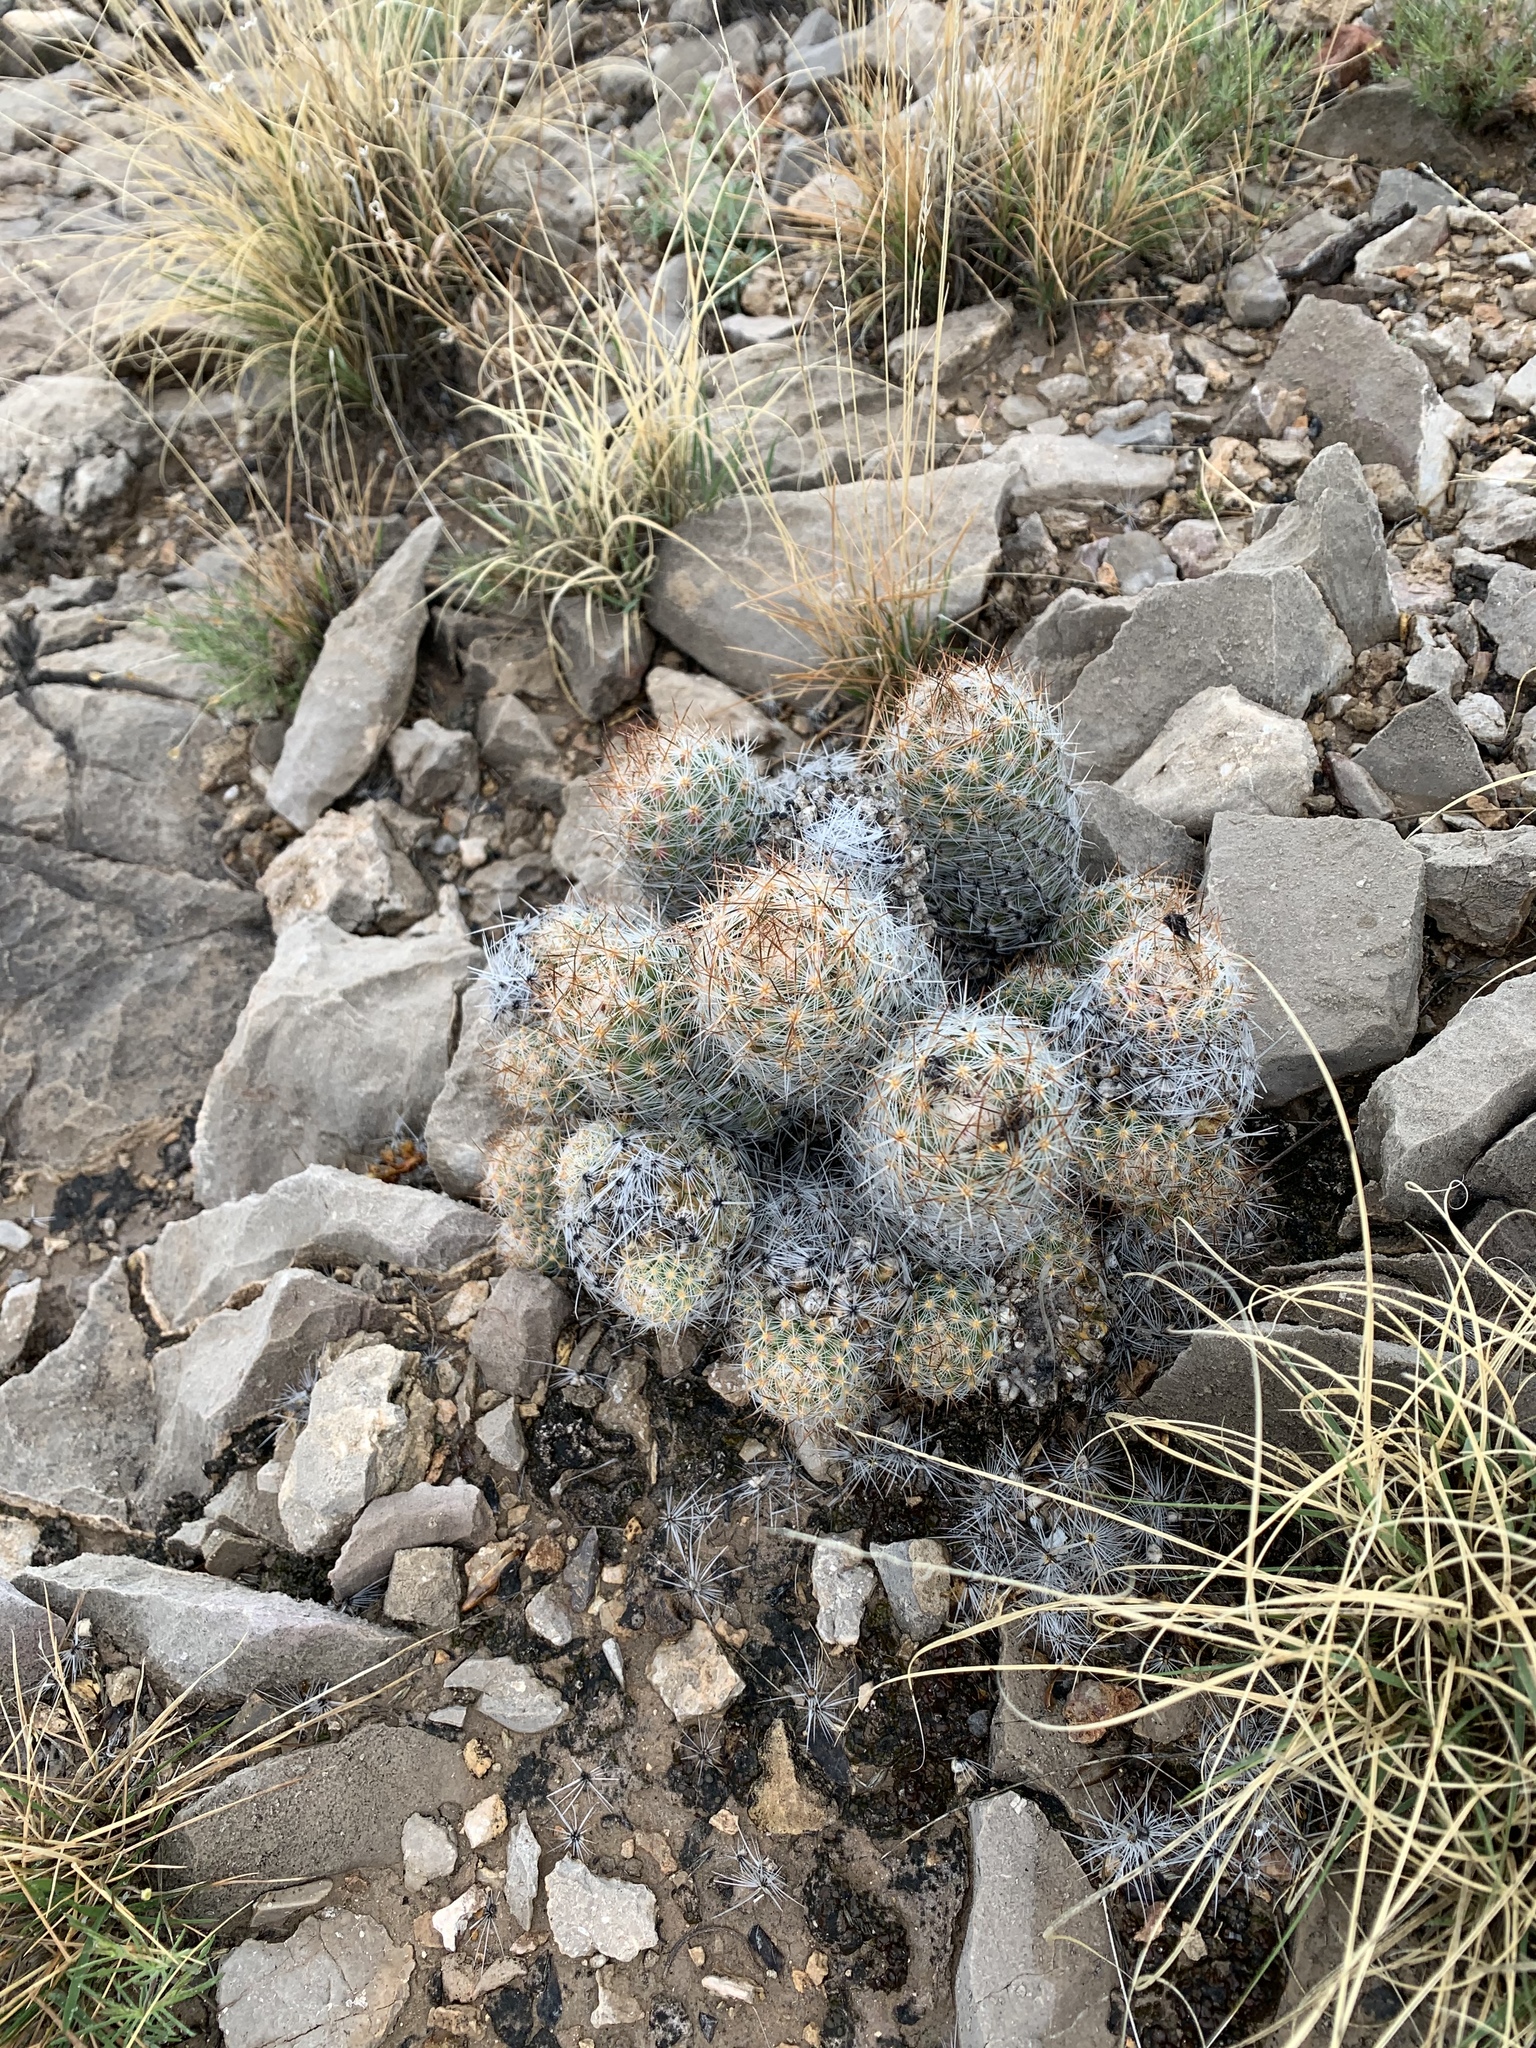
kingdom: Plantae
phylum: Tracheophyta
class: Magnoliopsida
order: Caryophyllales
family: Cactaceae
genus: Pelecyphora
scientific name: Pelecyphora tuberculosa
